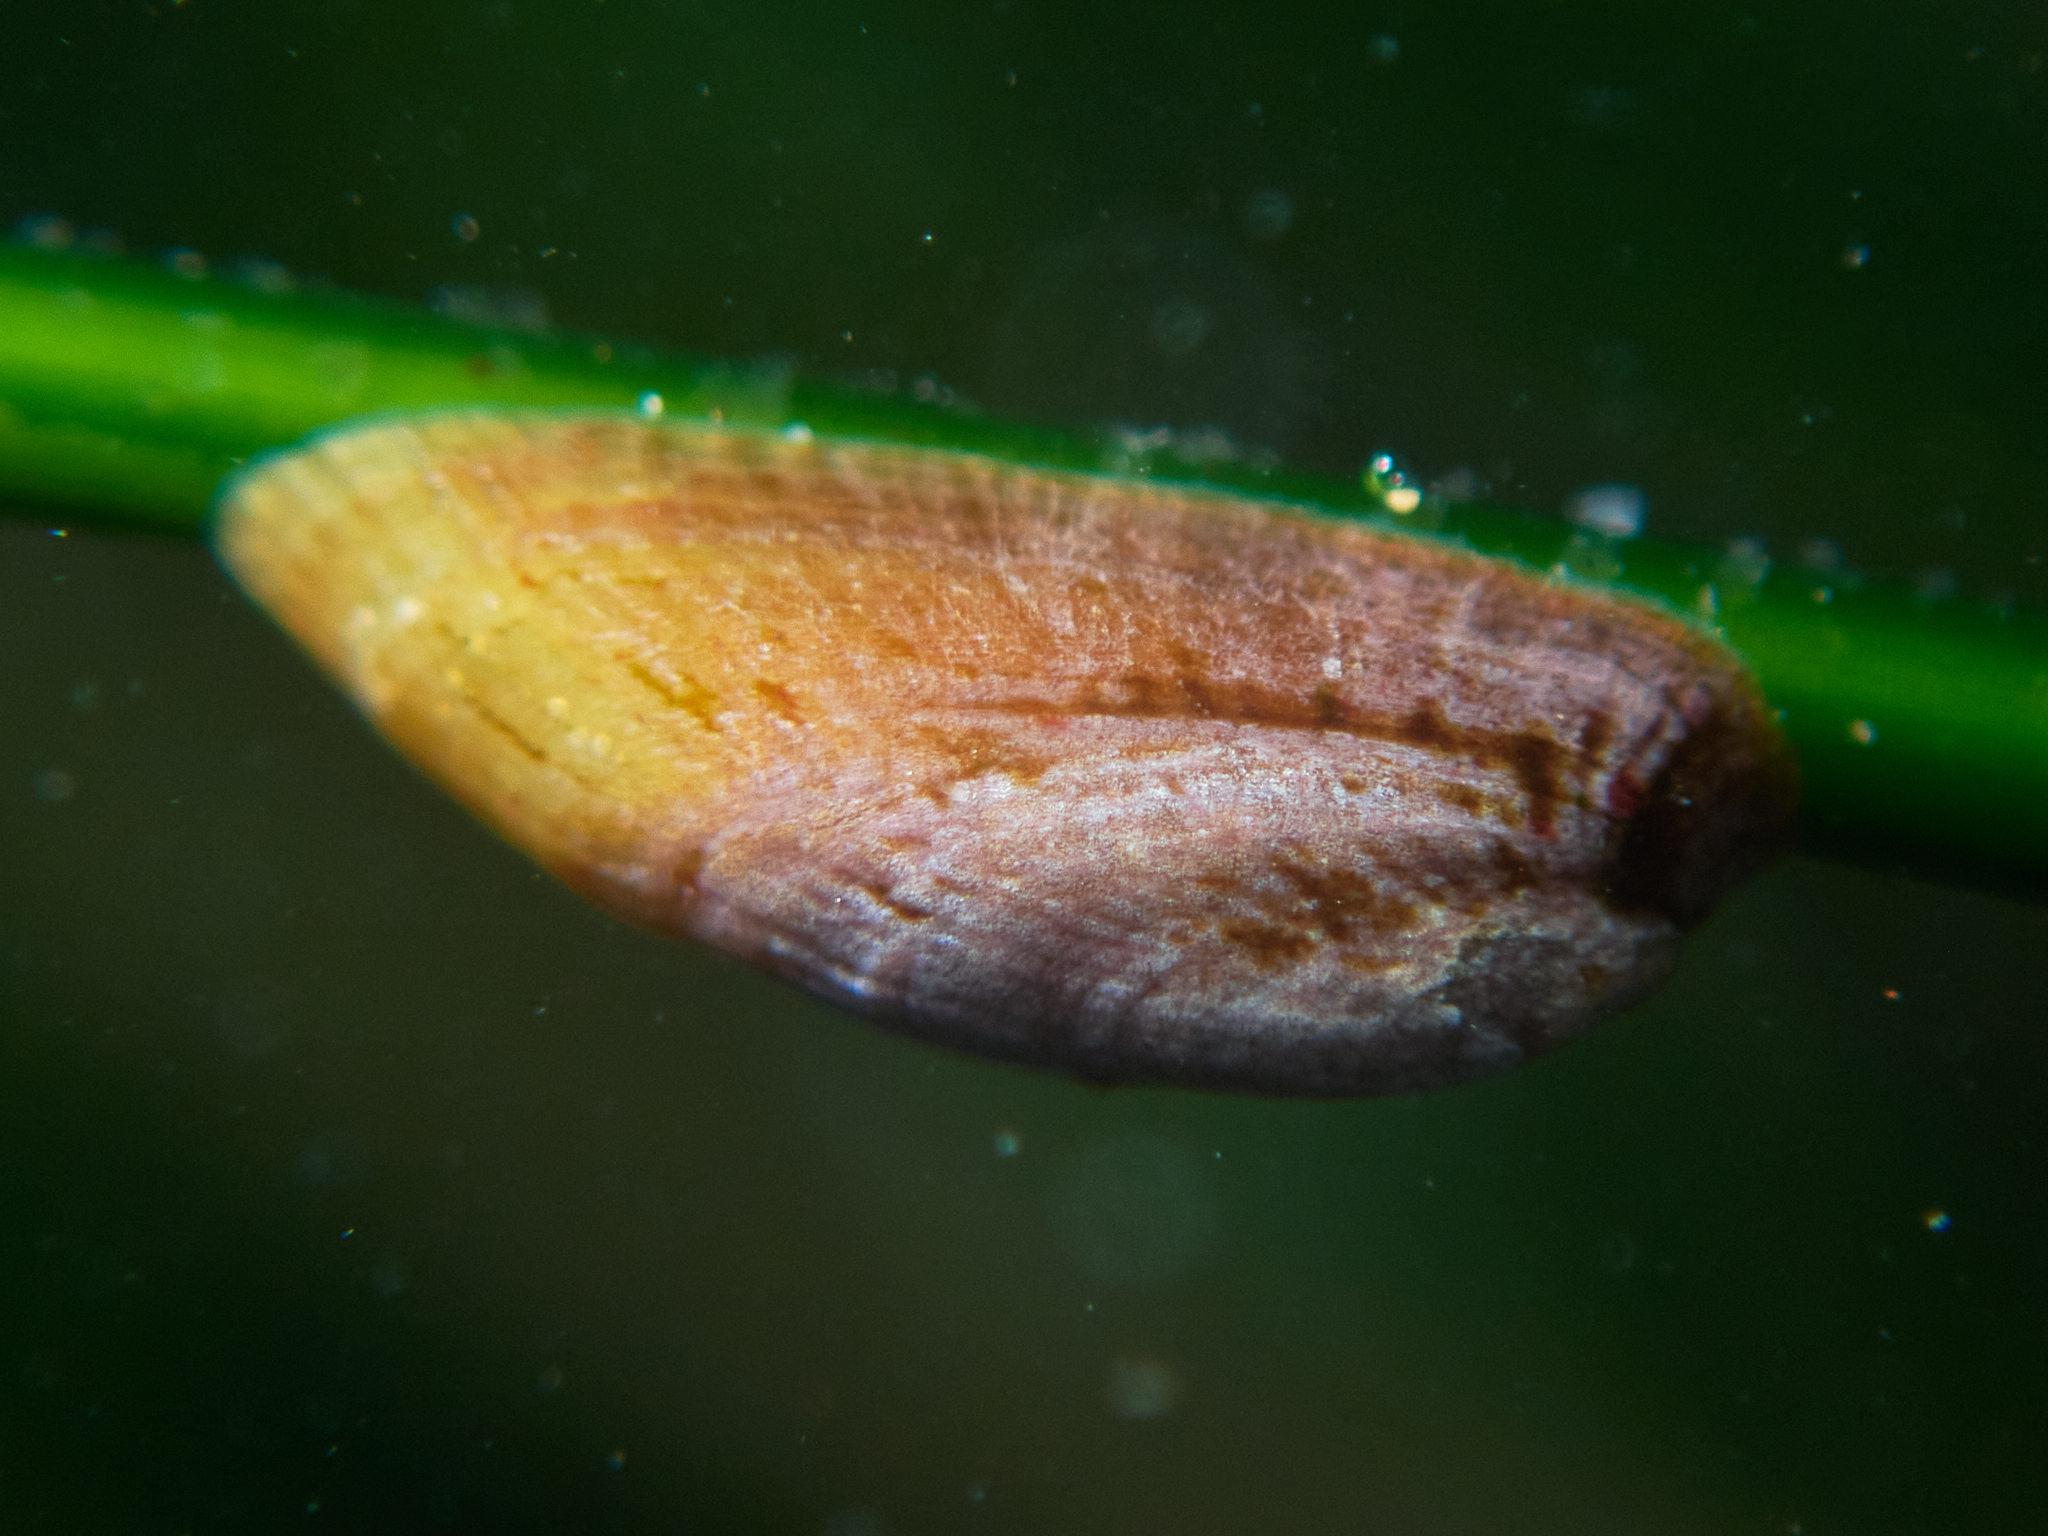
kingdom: Animalia
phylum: Mollusca
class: Gastropoda
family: Lottiidae
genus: Tectura
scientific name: Tectura paleacea
